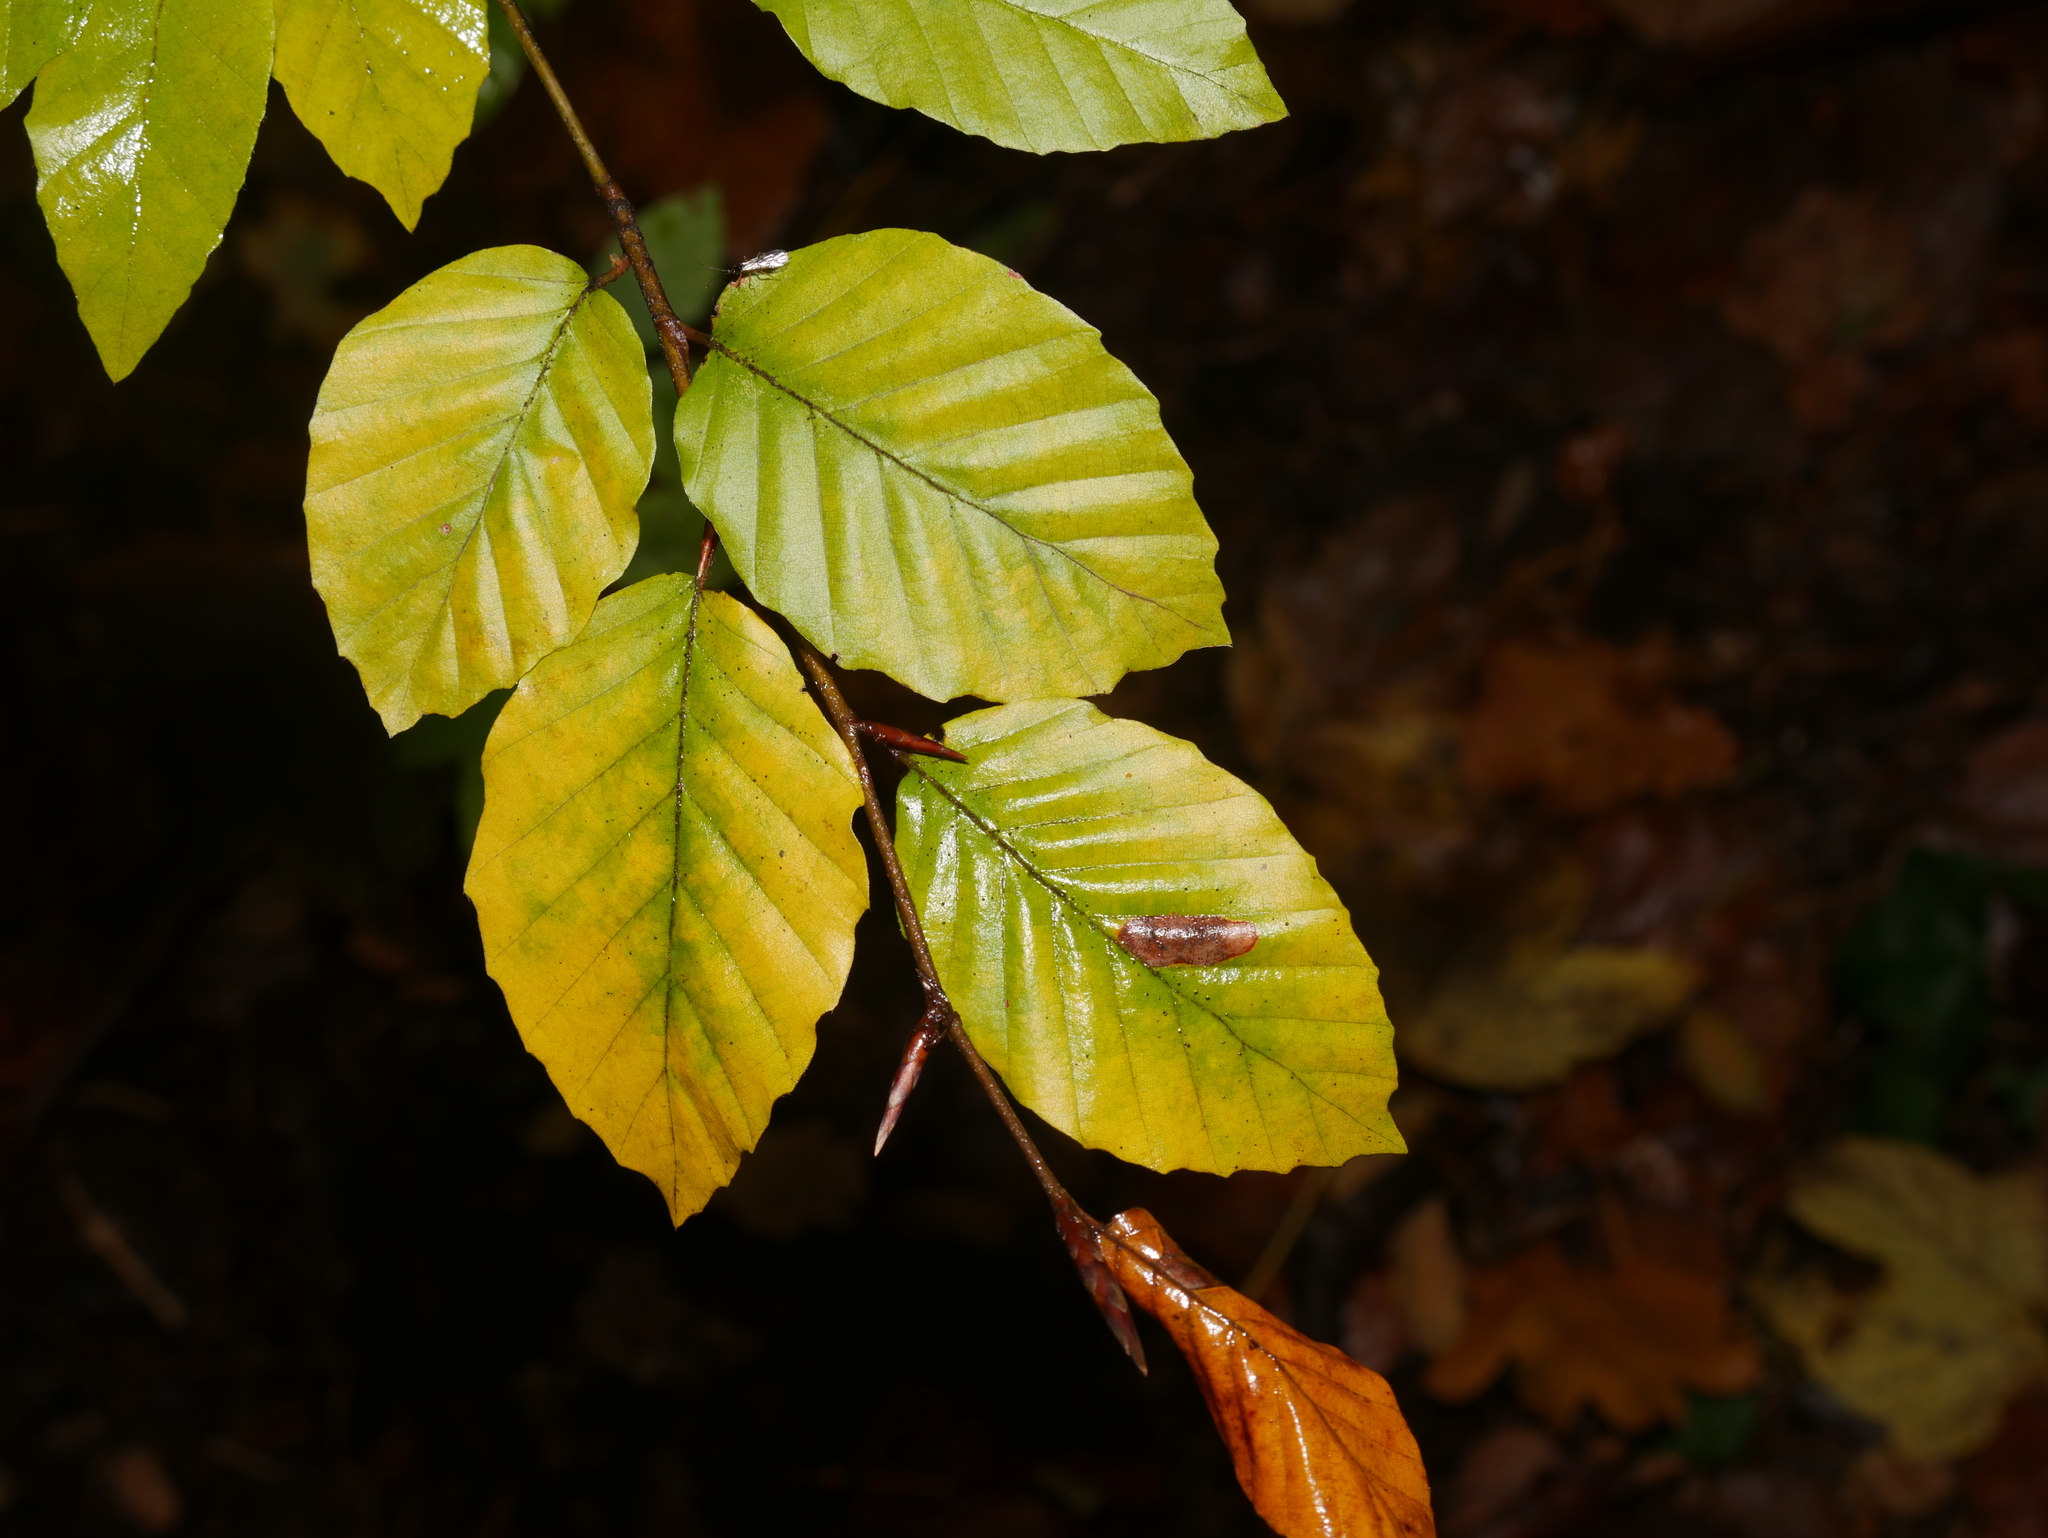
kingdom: Plantae
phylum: Tracheophyta
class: Magnoliopsida
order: Fagales
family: Fagaceae
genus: Fagus
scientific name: Fagus sylvatica
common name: Beech
